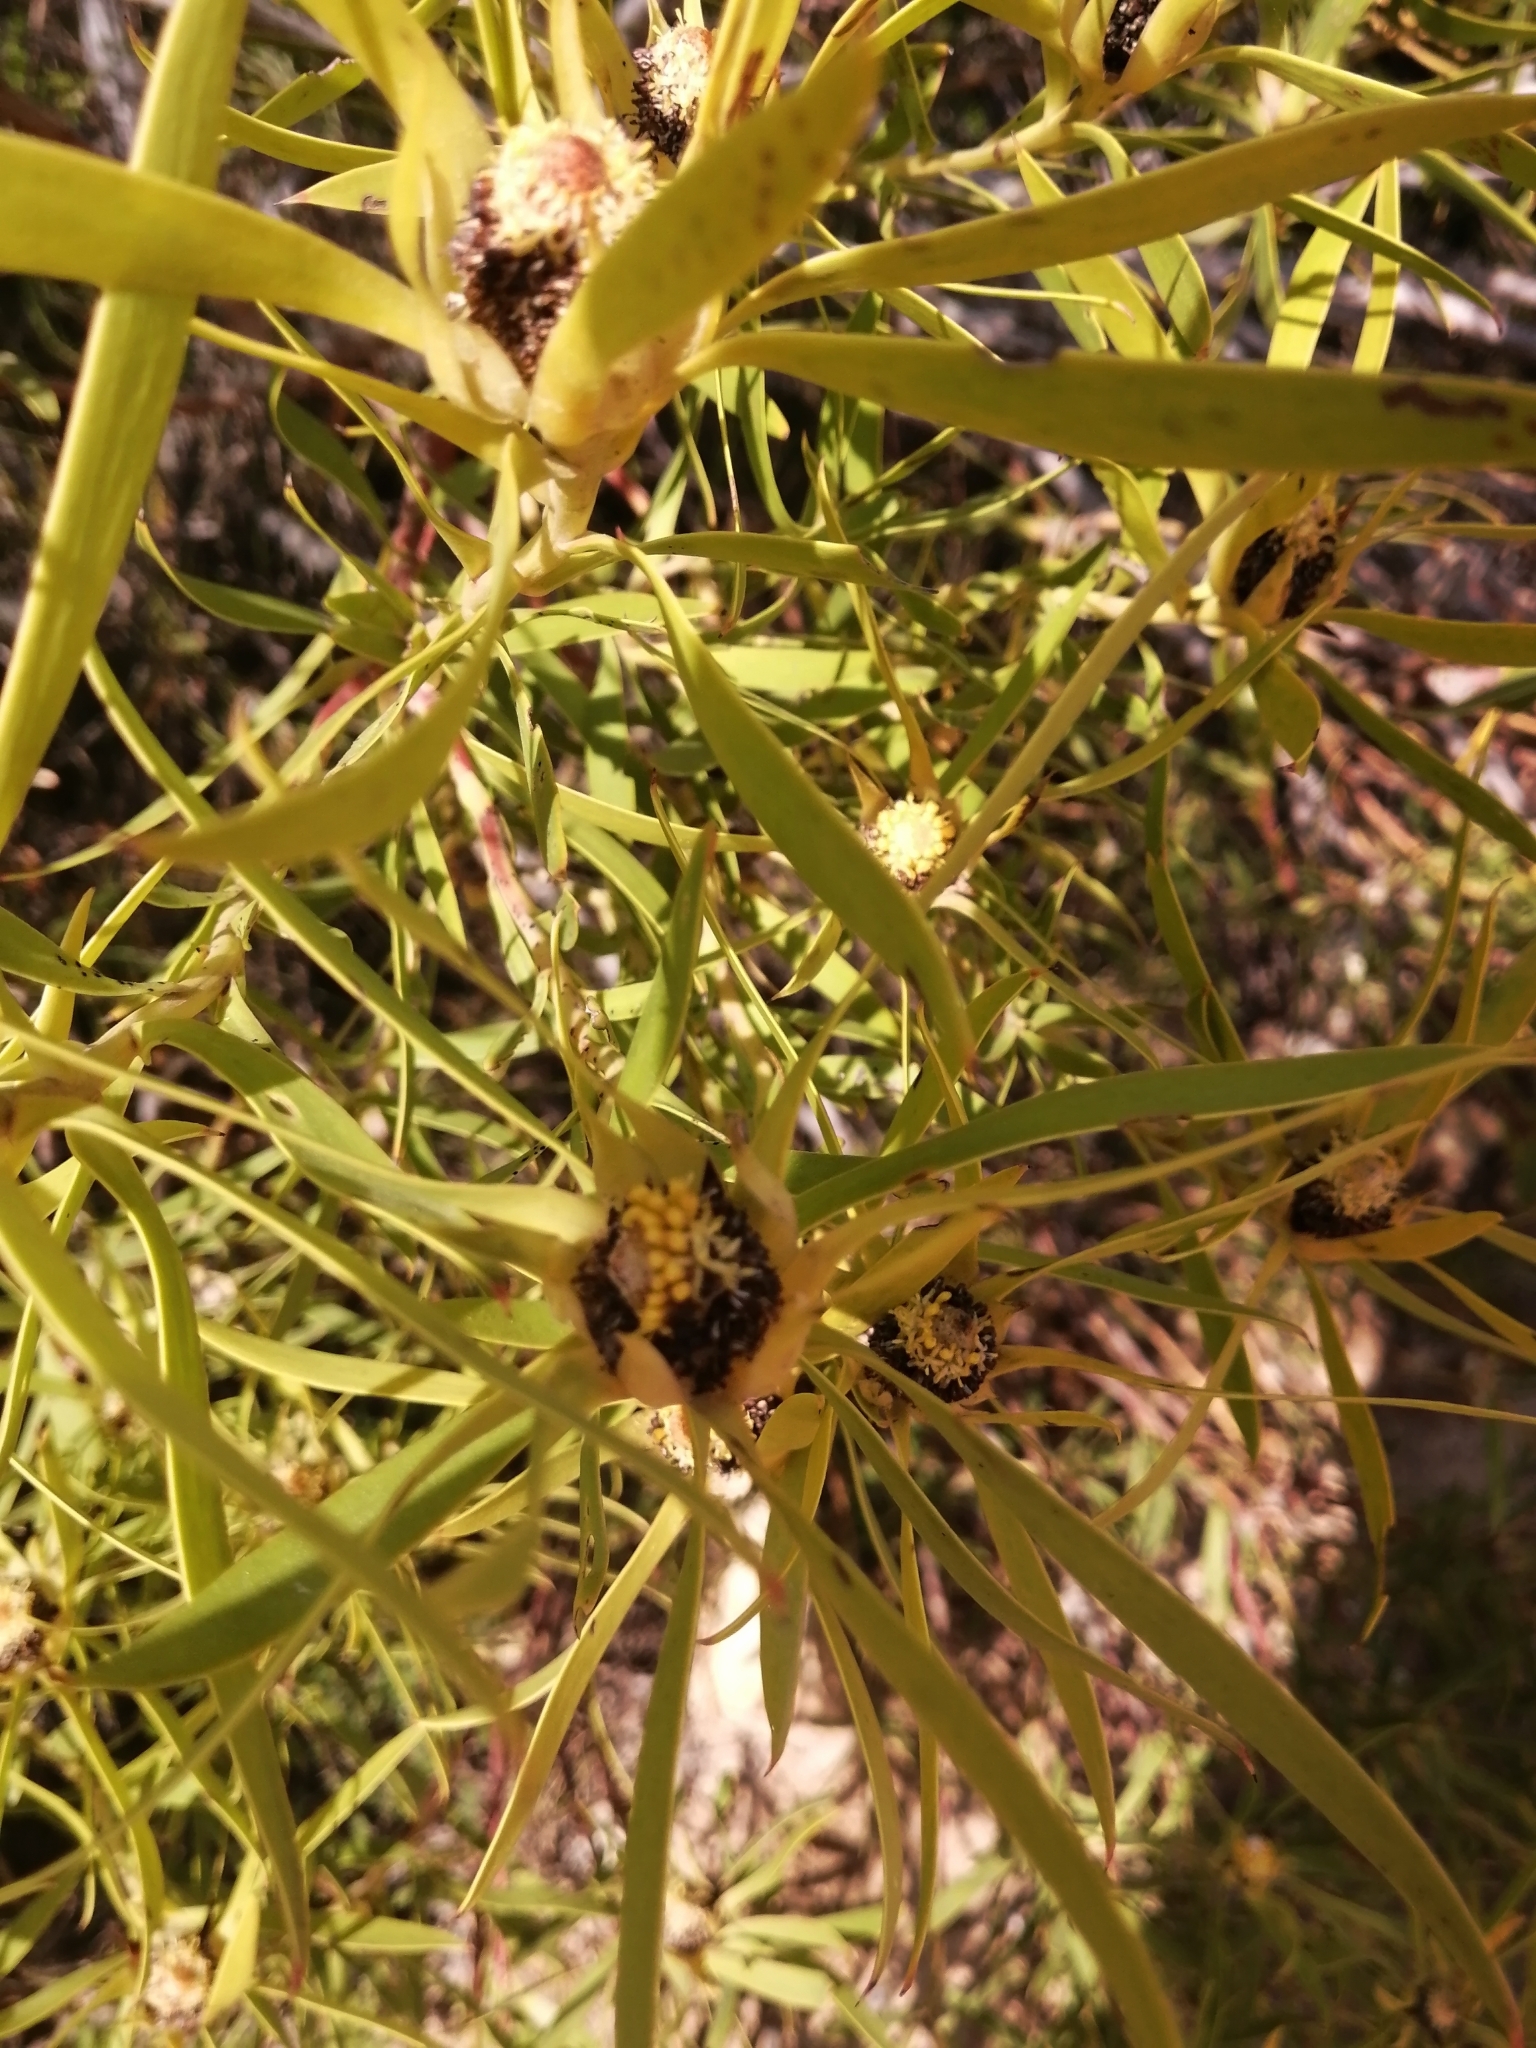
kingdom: Plantae
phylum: Tracheophyta
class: Magnoliopsida
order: Proteales
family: Proteaceae
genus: Leucadendron
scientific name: Leucadendron salignum
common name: Common sunshine conebush
